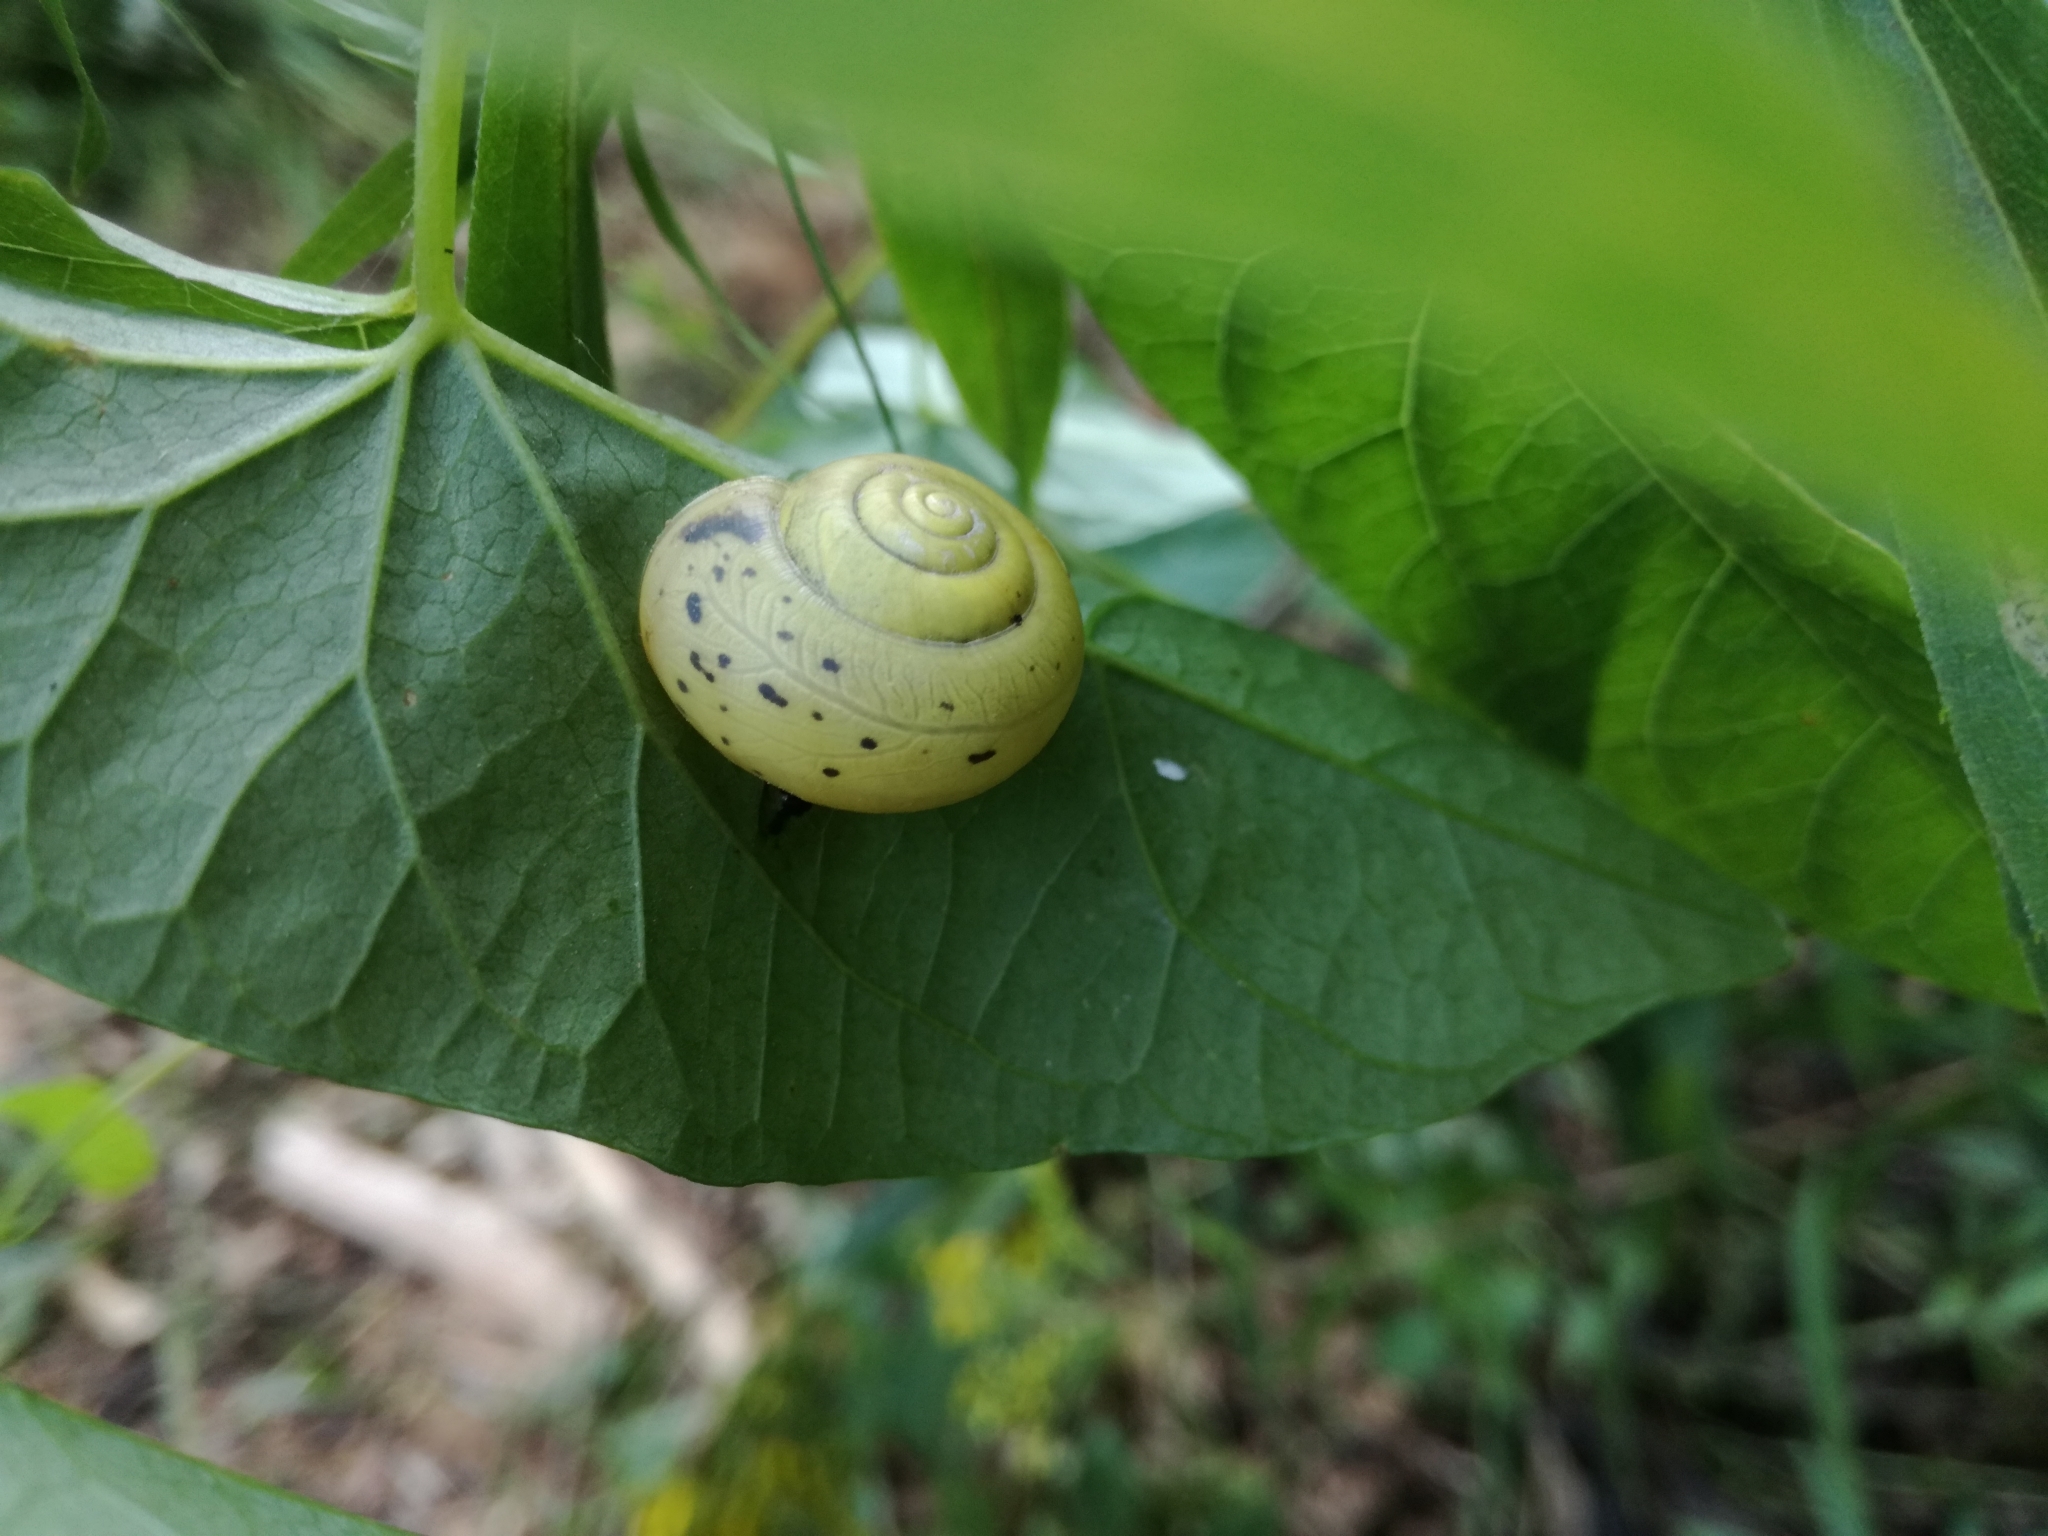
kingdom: Animalia
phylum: Mollusca
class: Gastropoda
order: Stylommatophora
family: Camaenidae
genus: Fruticicola
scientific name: Fruticicola fruticum
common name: Bush snail
